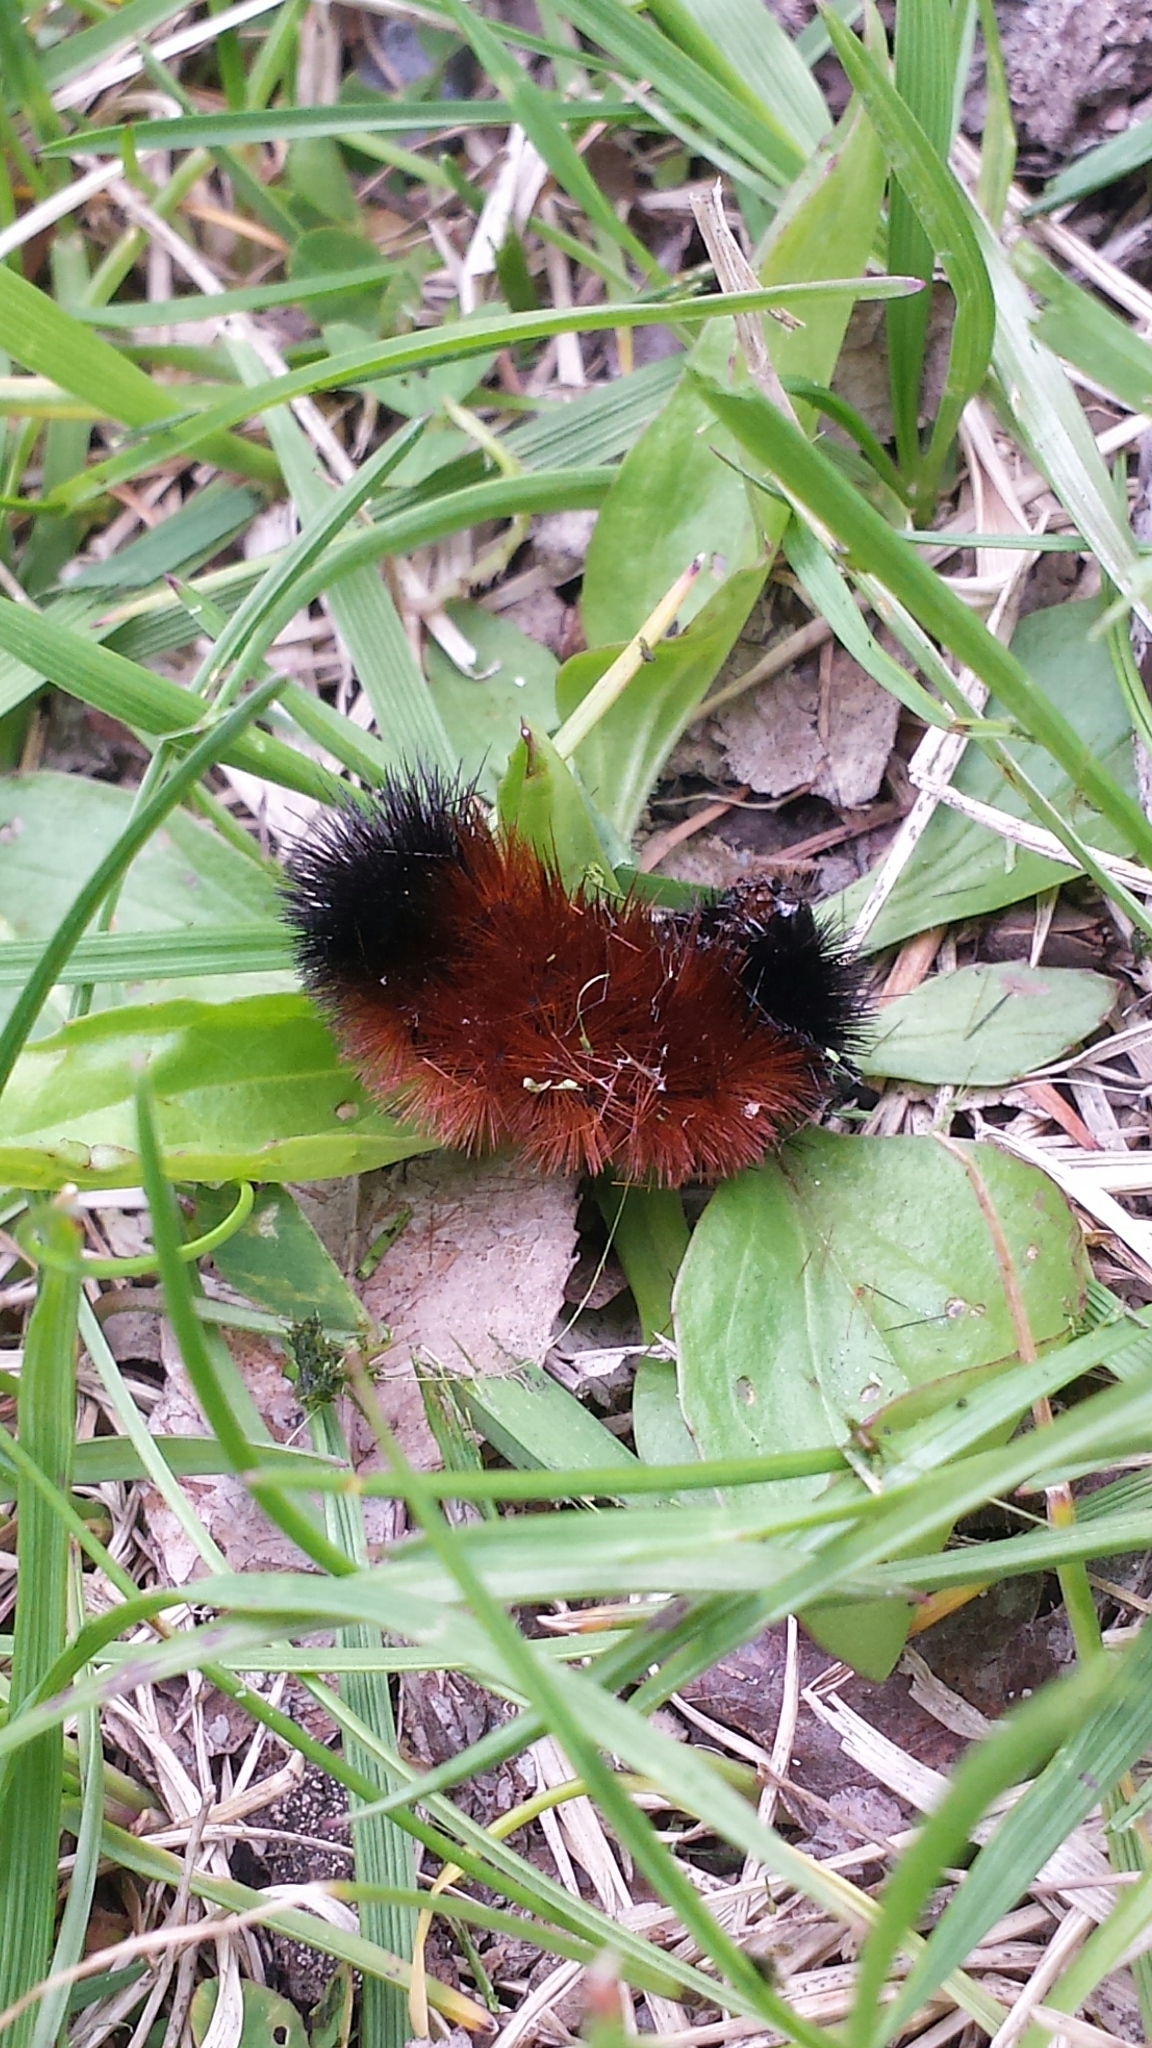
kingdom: Animalia
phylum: Arthropoda
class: Insecta
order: Lepidoptera
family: Erebidae
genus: Pyrrharctia
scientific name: Pyrrharctia isabella
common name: Isabella tiger moth
